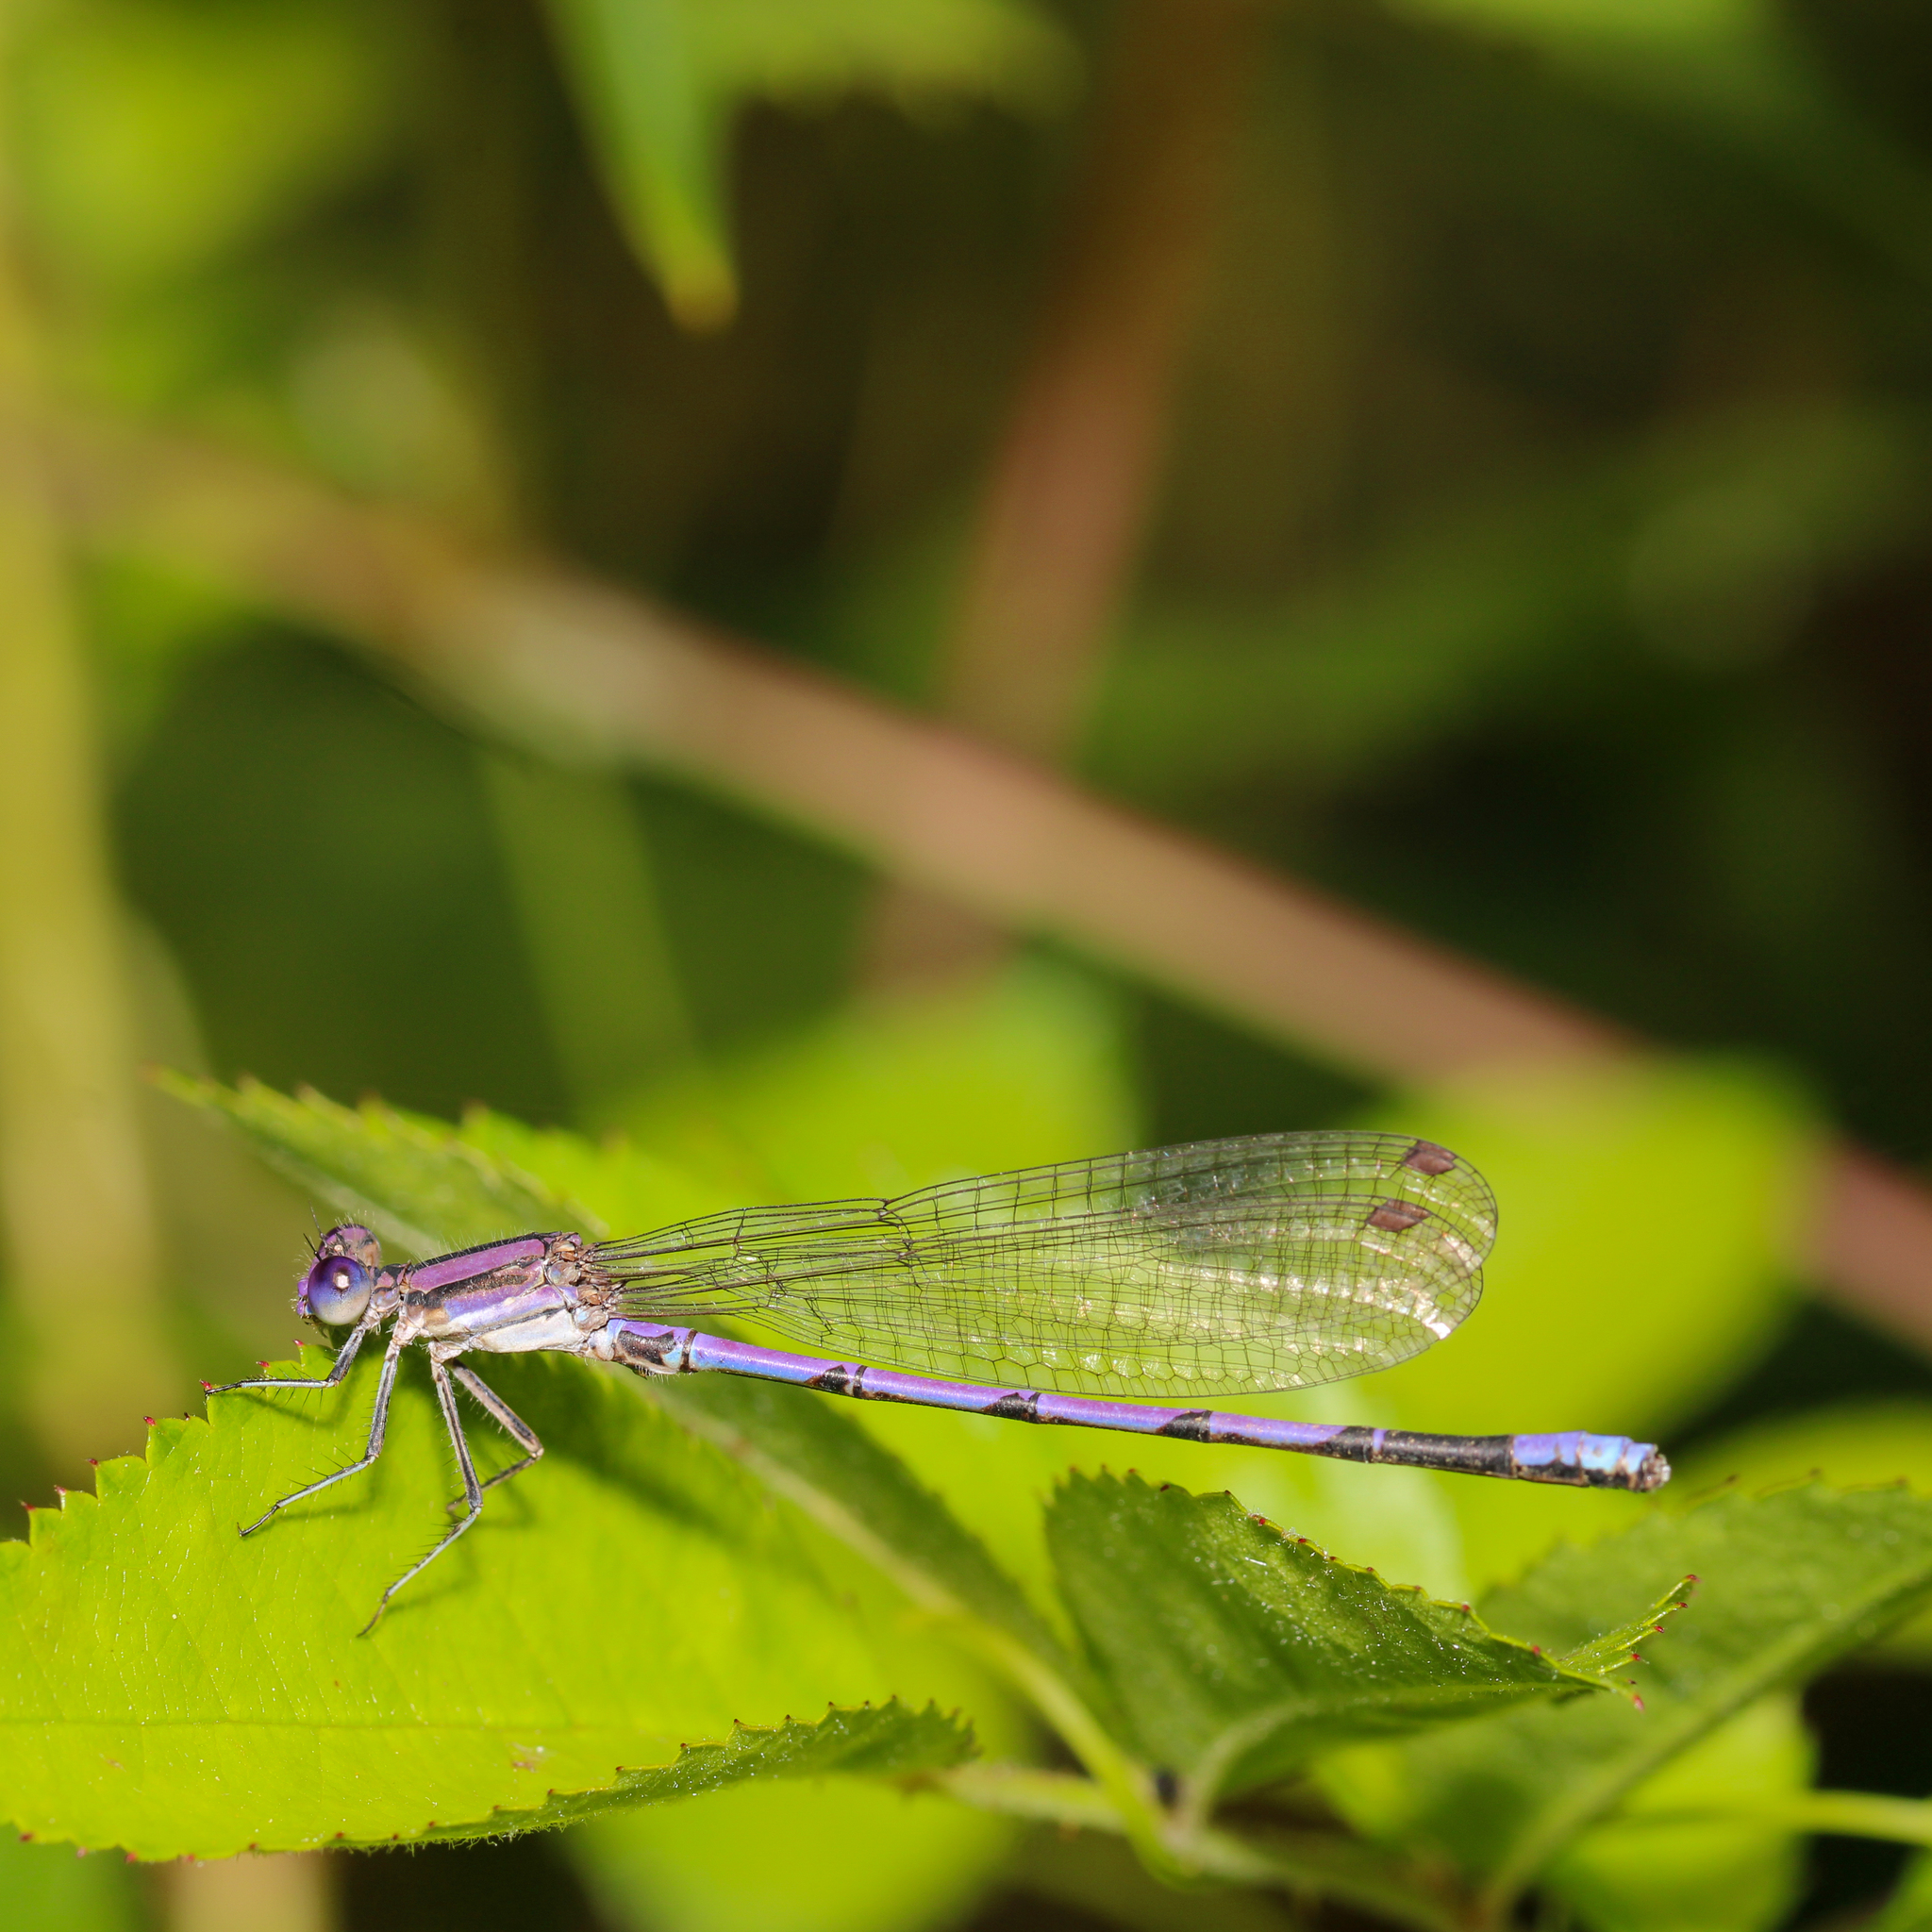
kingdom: Animalia
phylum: Arthropoda
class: Insecta
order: Odonata
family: Coenagrionidae
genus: Argia
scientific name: Argia fumipennis
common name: Variable dancer
